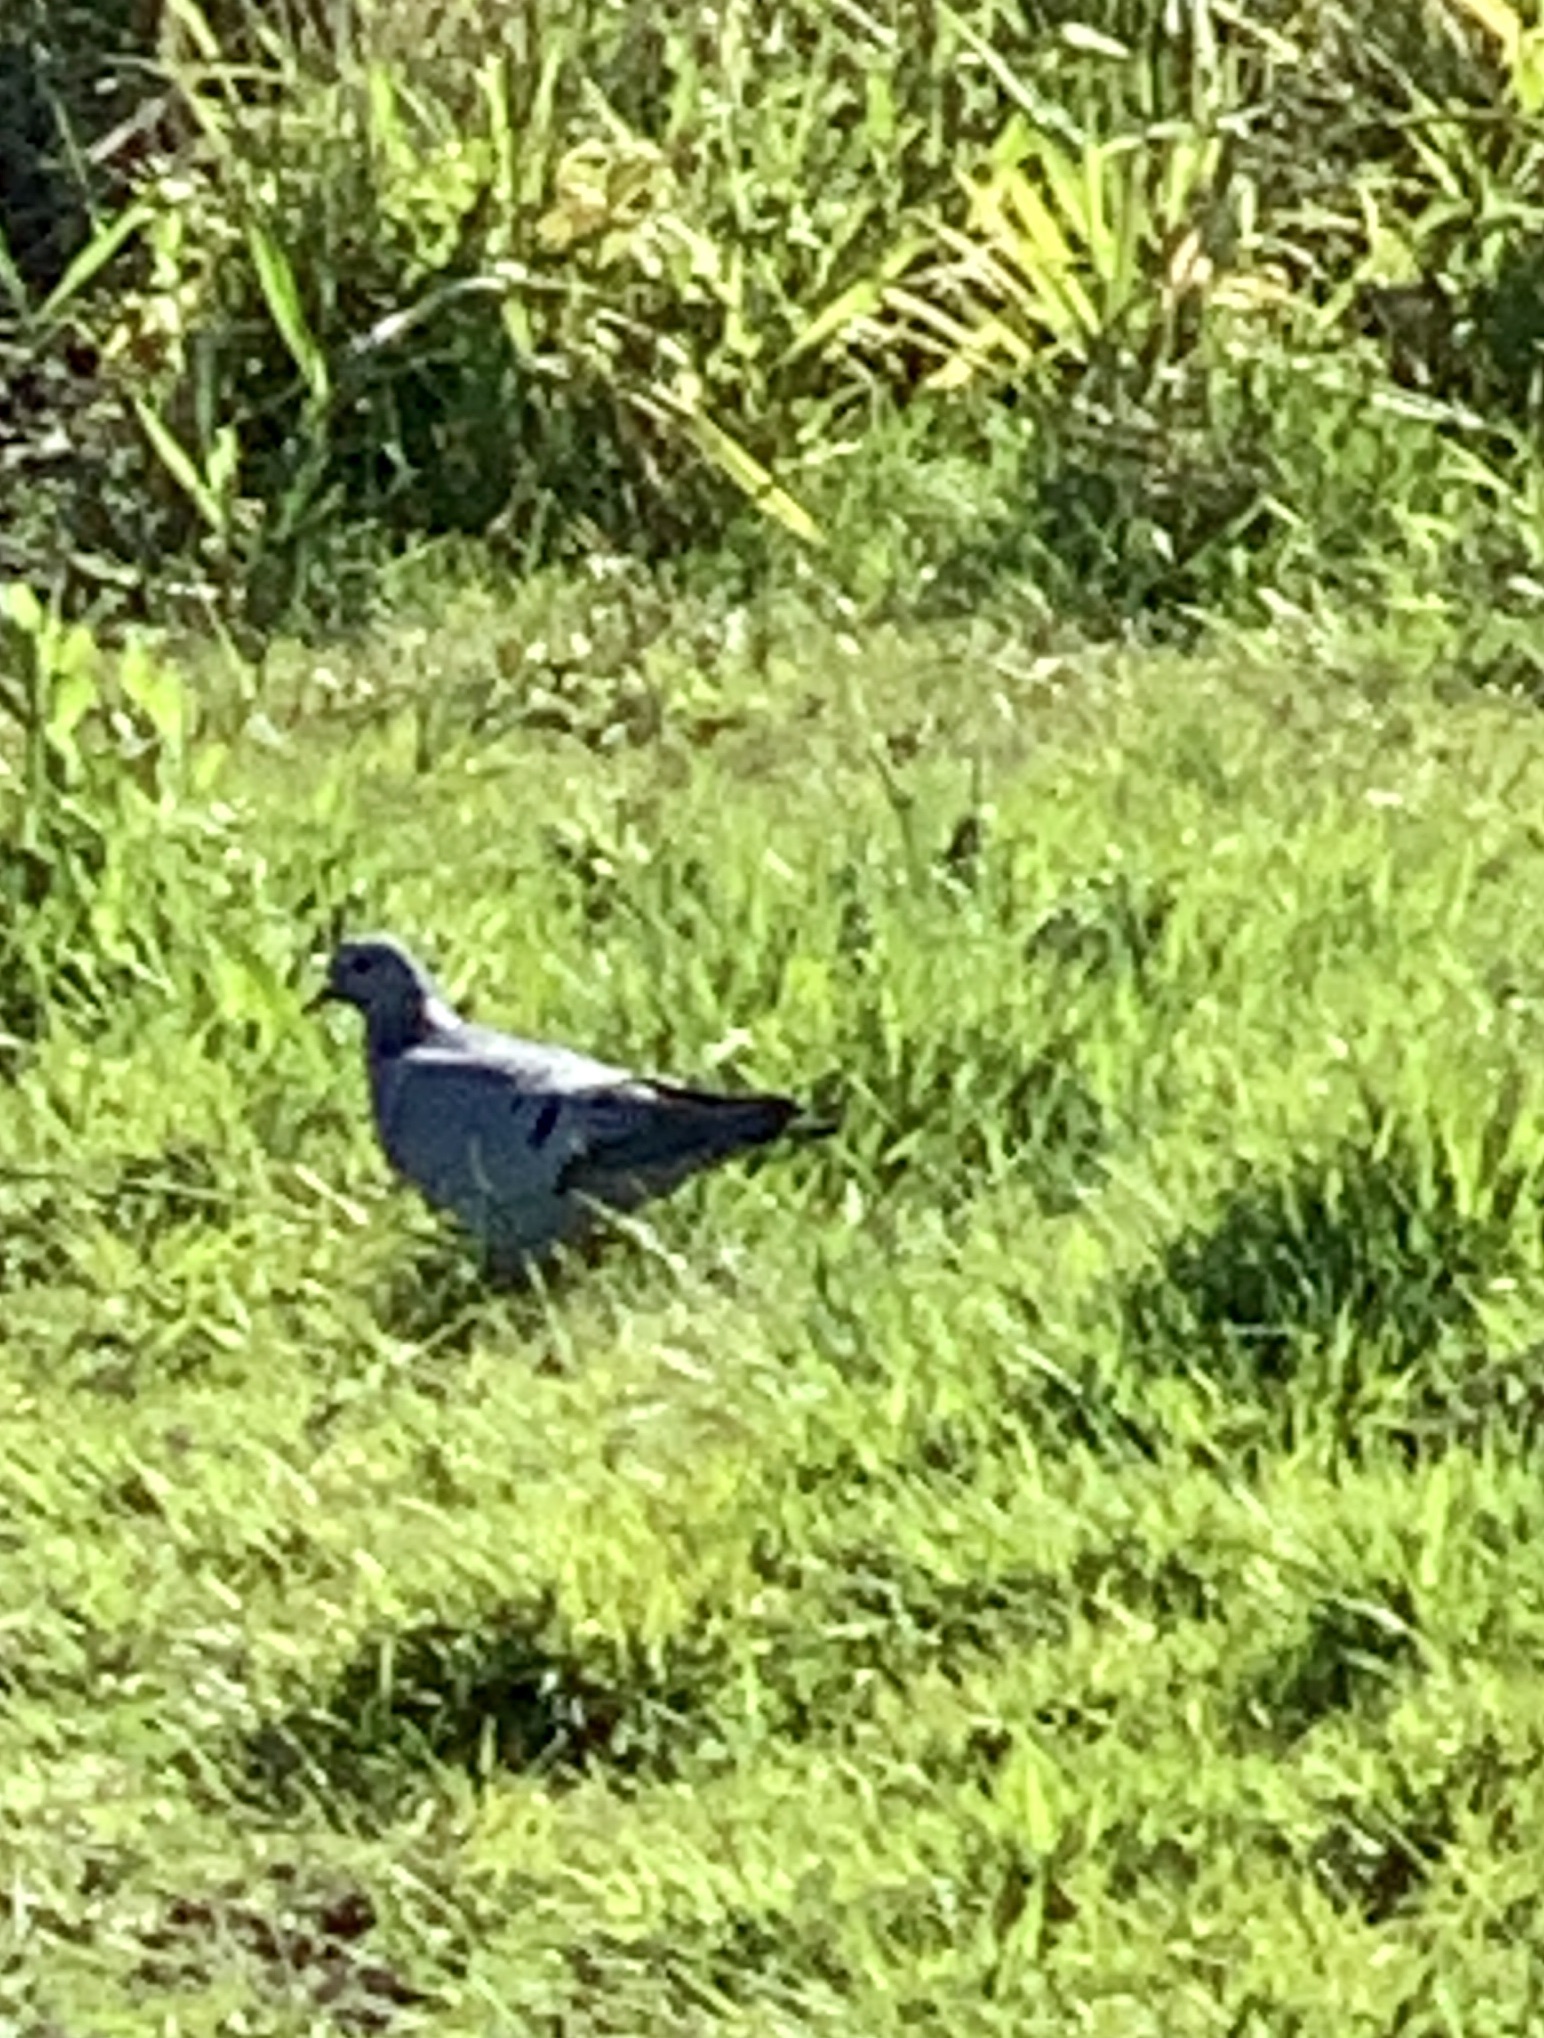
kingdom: Animalia
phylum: Chordata
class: Aves
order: Columbiformes
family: Columbidae
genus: Columba
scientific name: Columba oenas
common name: Stock dove
